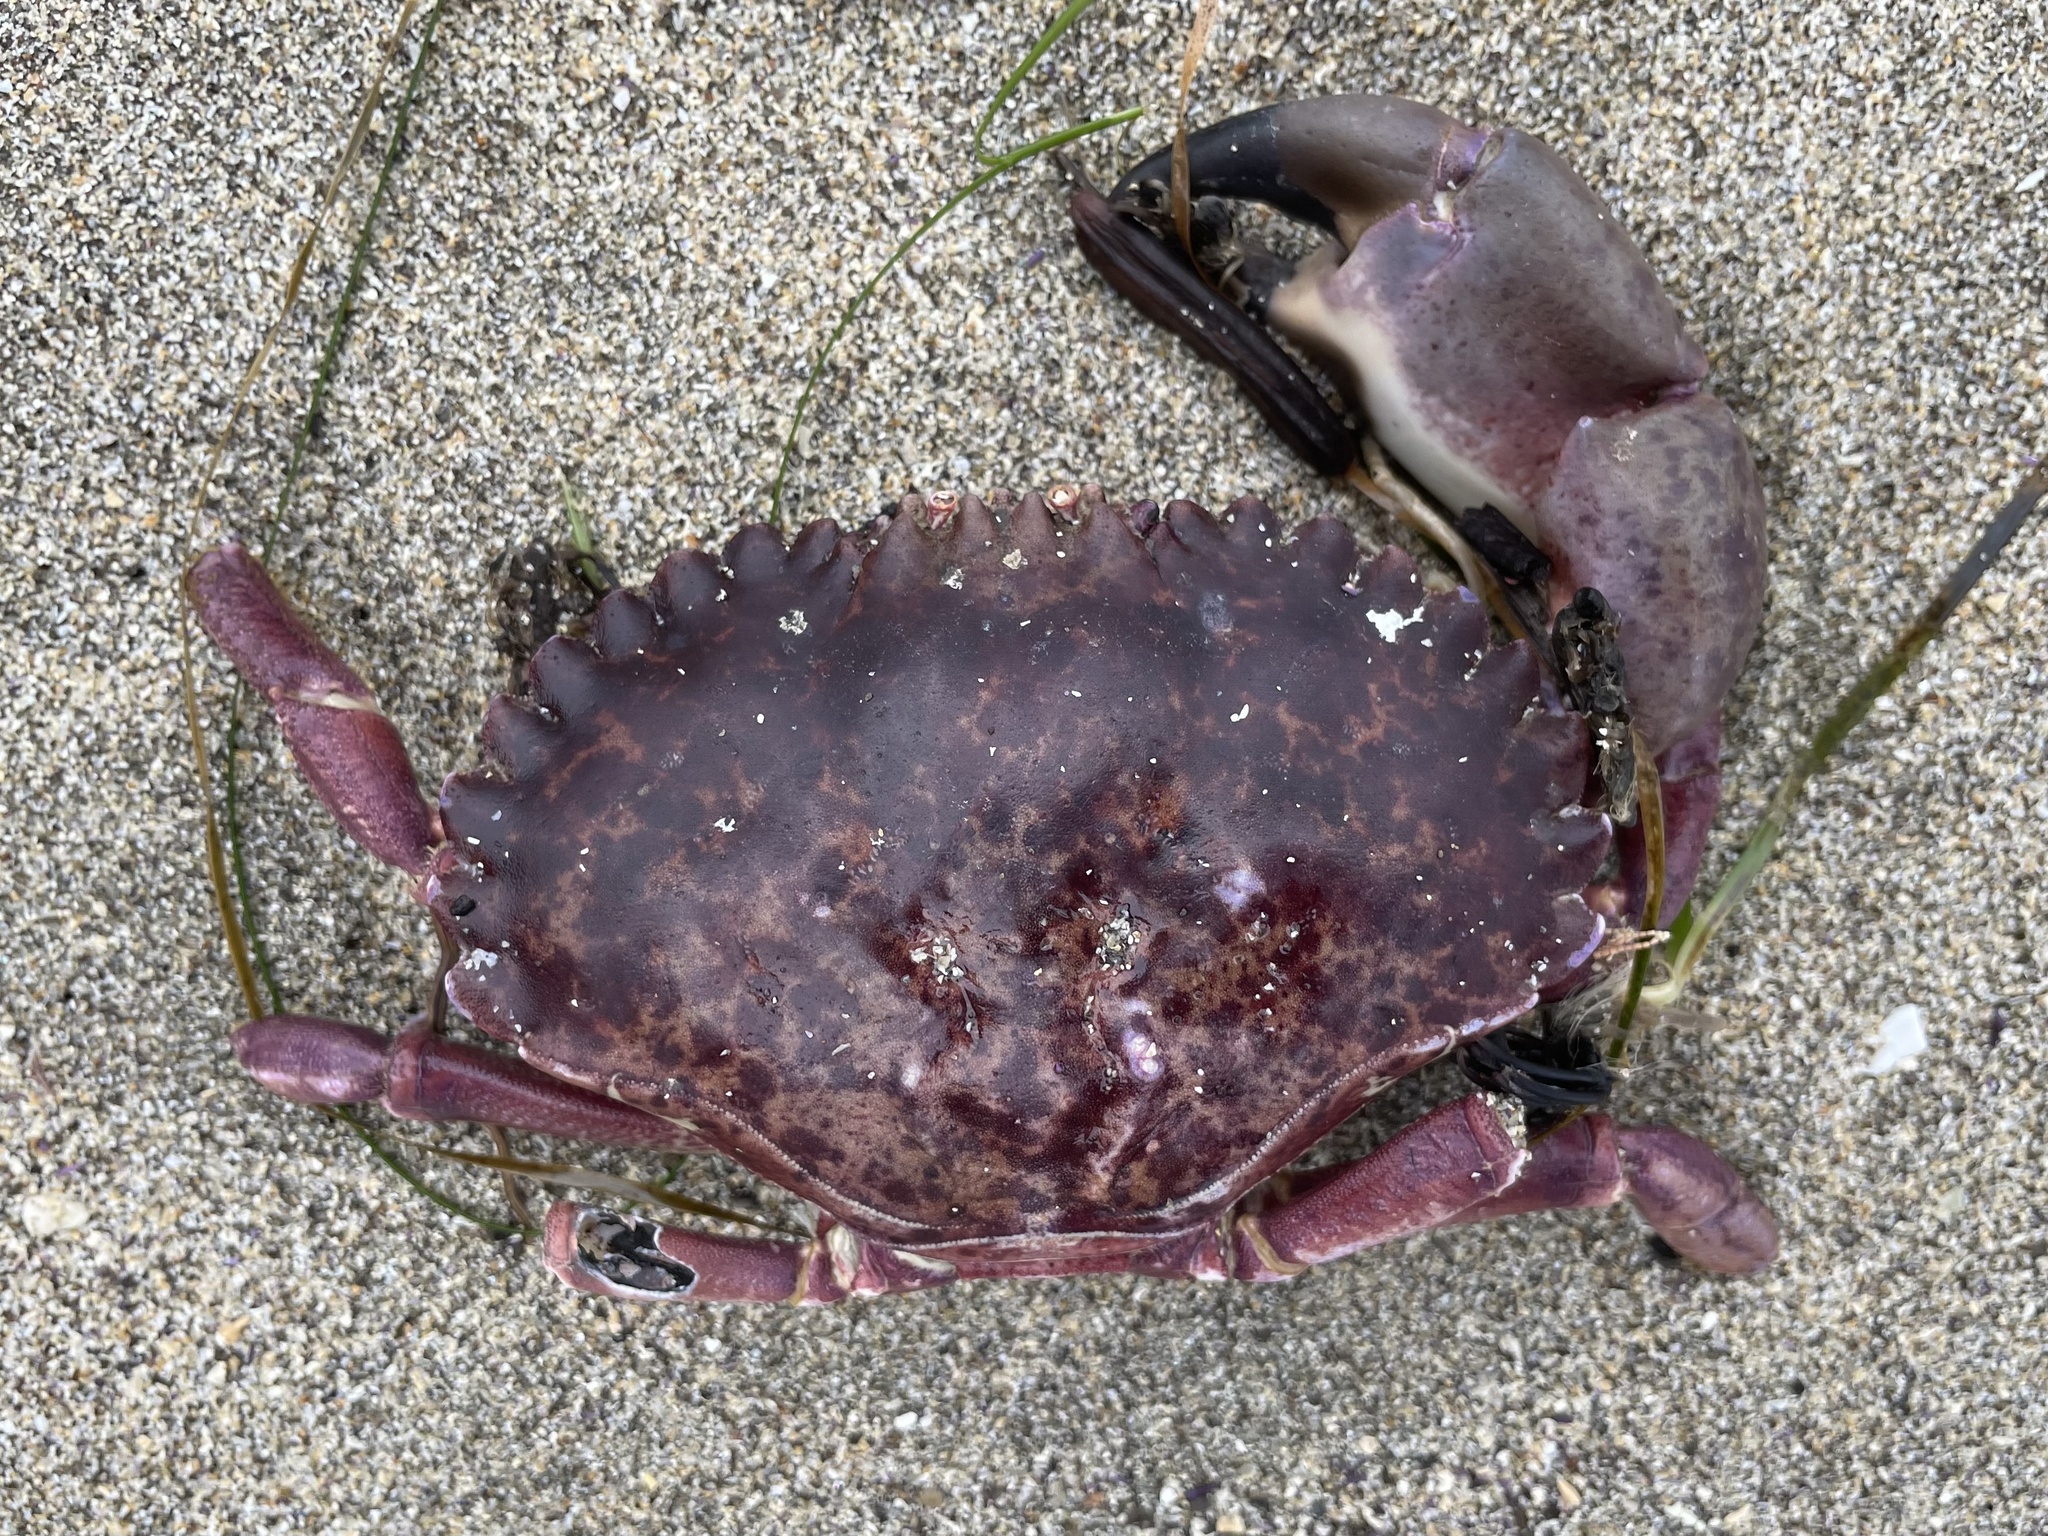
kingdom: Animalia
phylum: Arthropoda
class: Malacostraca
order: Decapoda
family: Cancridae
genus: Romaleon
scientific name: Romaleon antennarium
